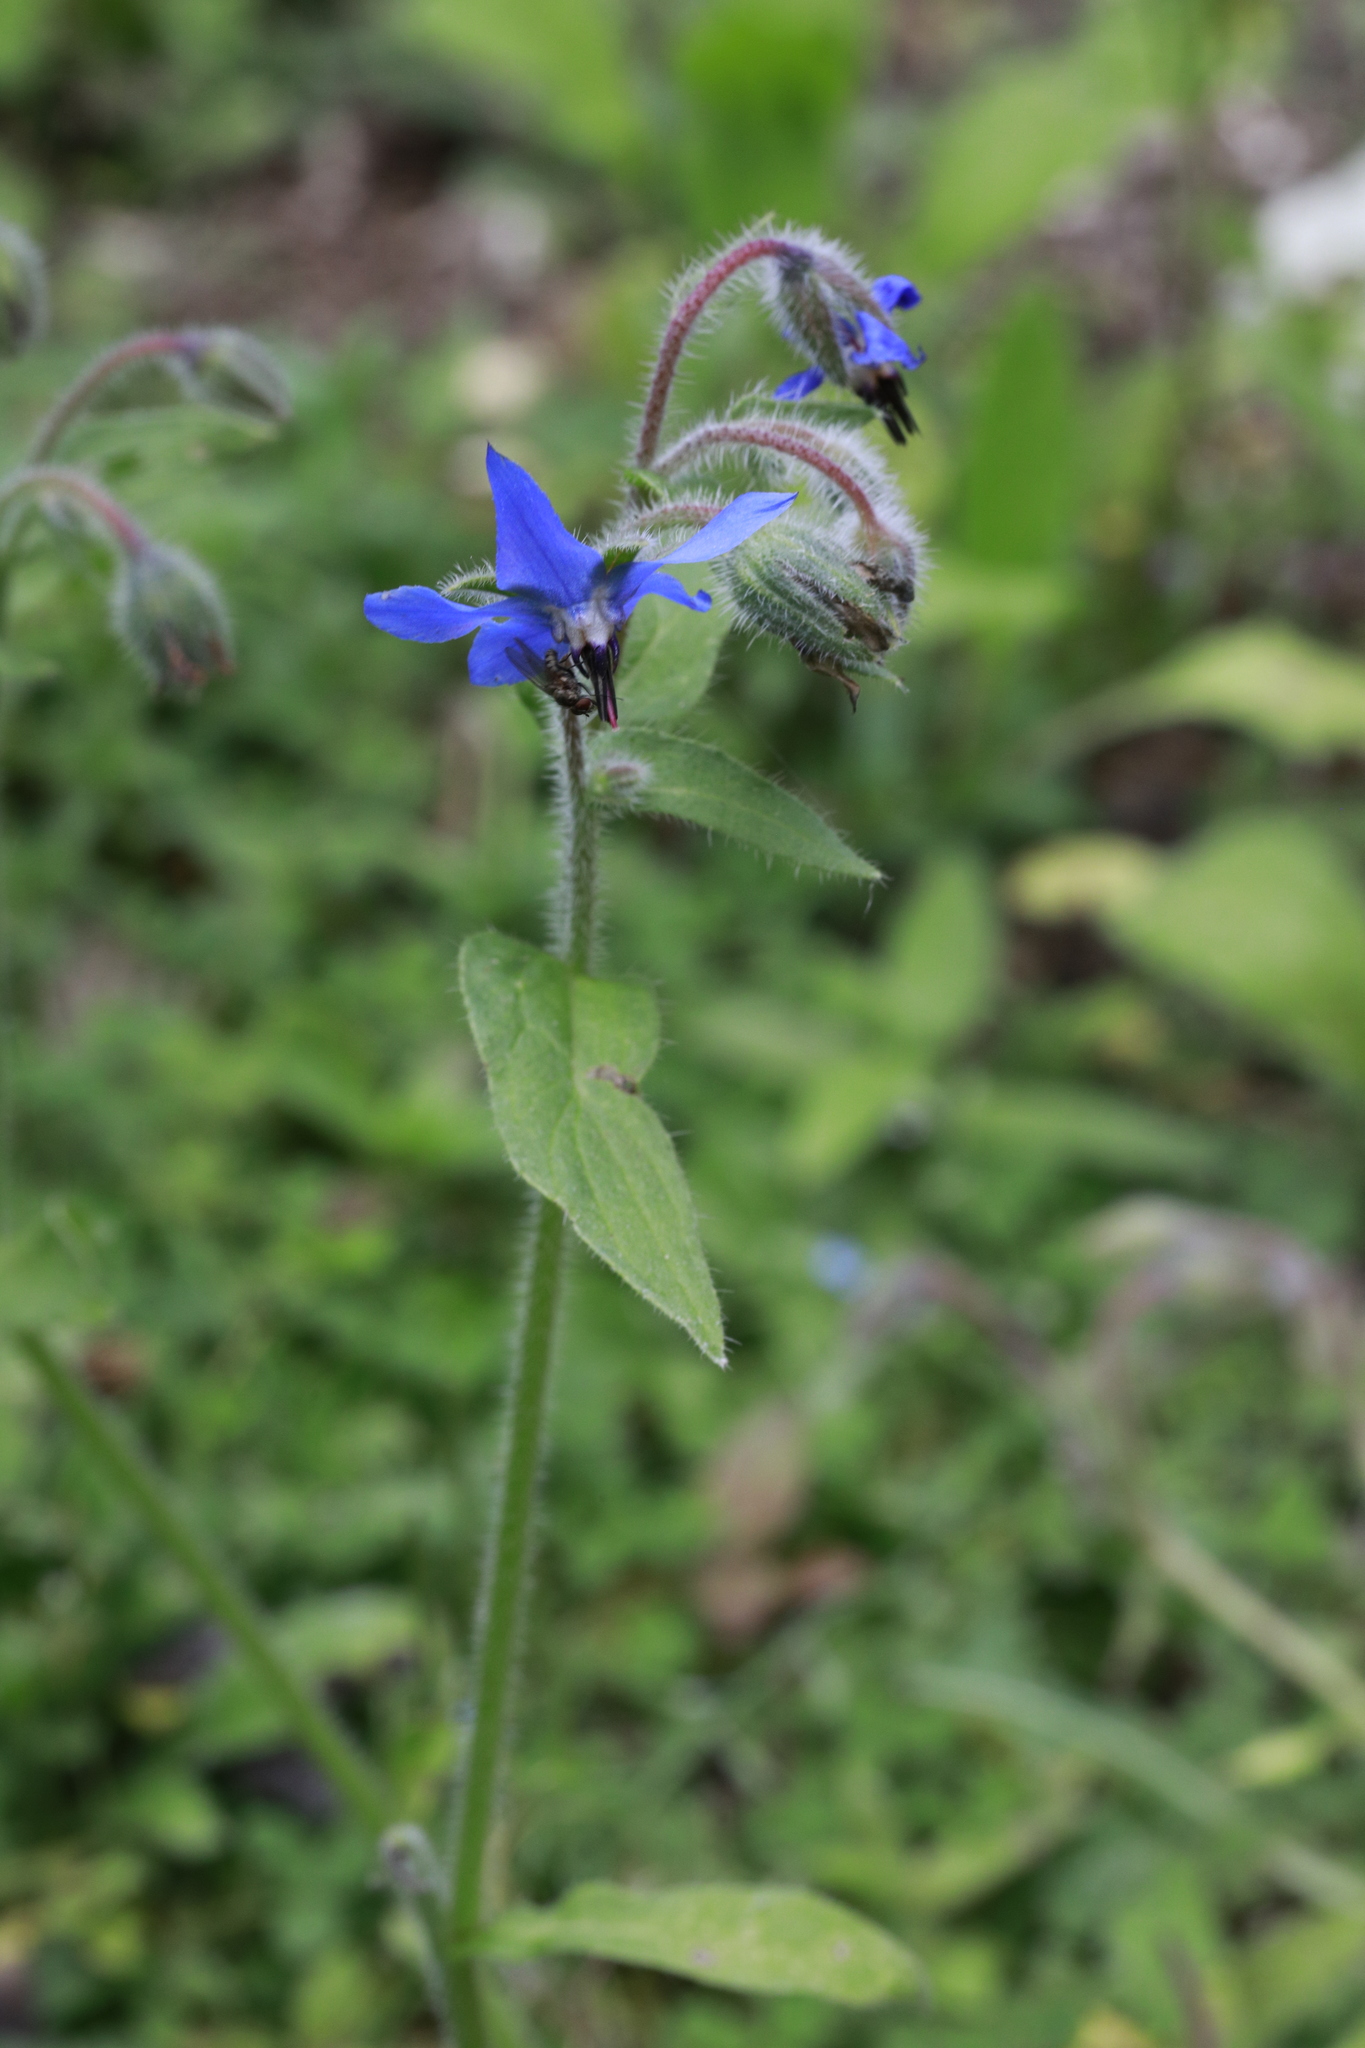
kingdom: Plantae
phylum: Tracheophyta
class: Magnoliopsida
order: Boraginales
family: Boraginaceae
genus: Borago
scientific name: Borago officinalis
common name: Borage
